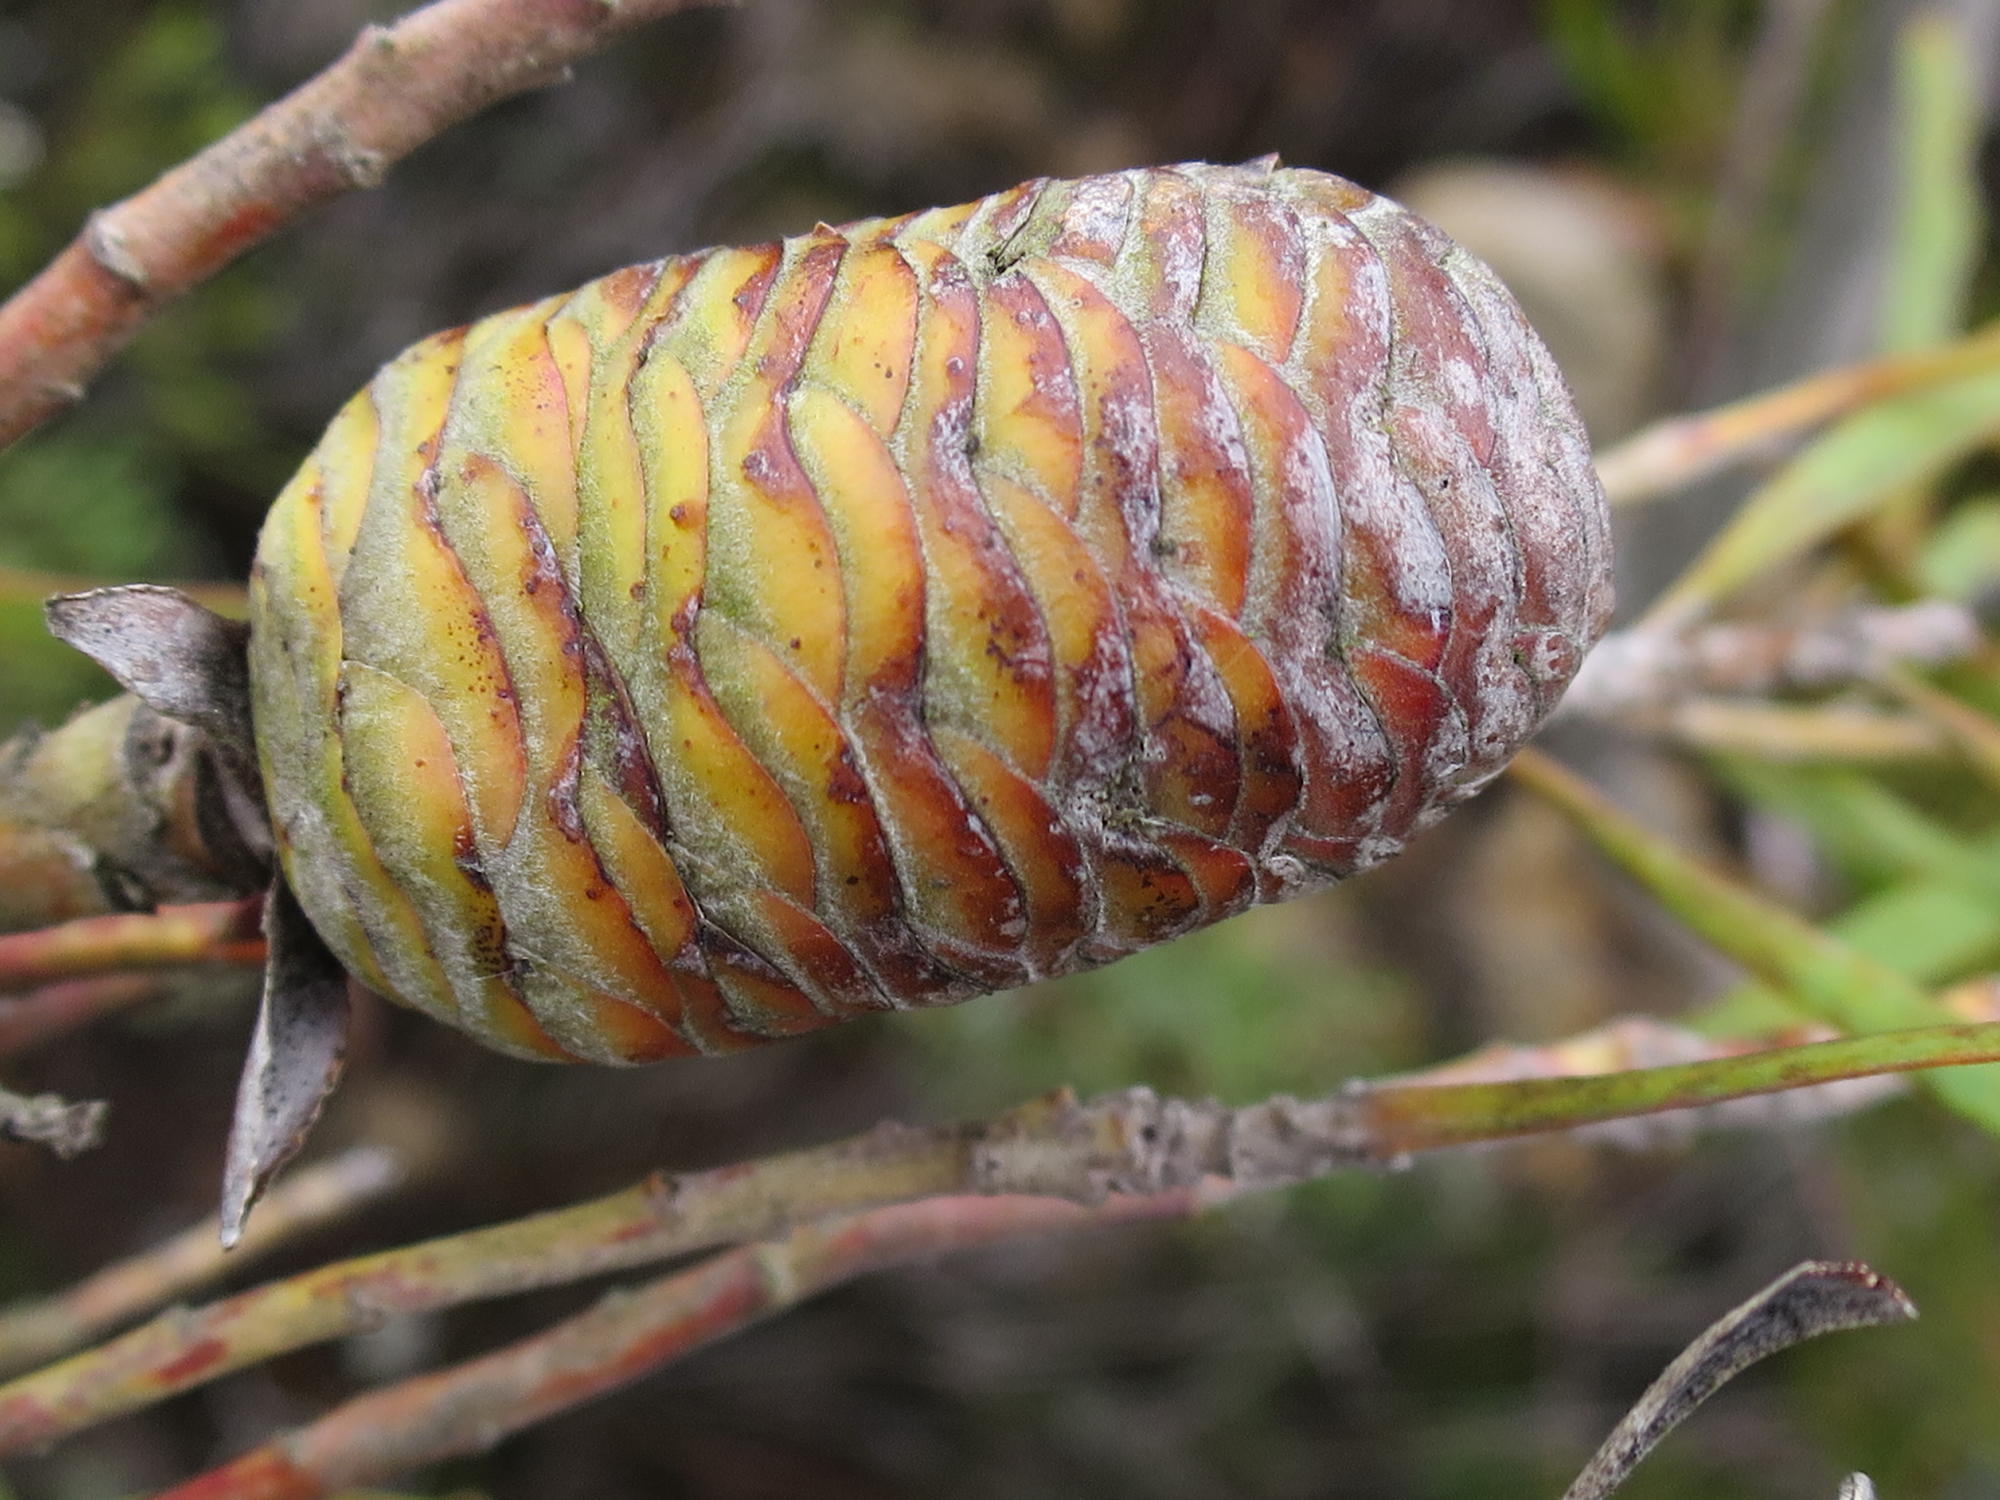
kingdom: Plantae
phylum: Tracheophyta
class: Magnoliopsida
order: Proteales
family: Proteaceae
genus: Leucadendron
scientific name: Leucadendron eucalyptifolium
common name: Gum-leaved conebush
